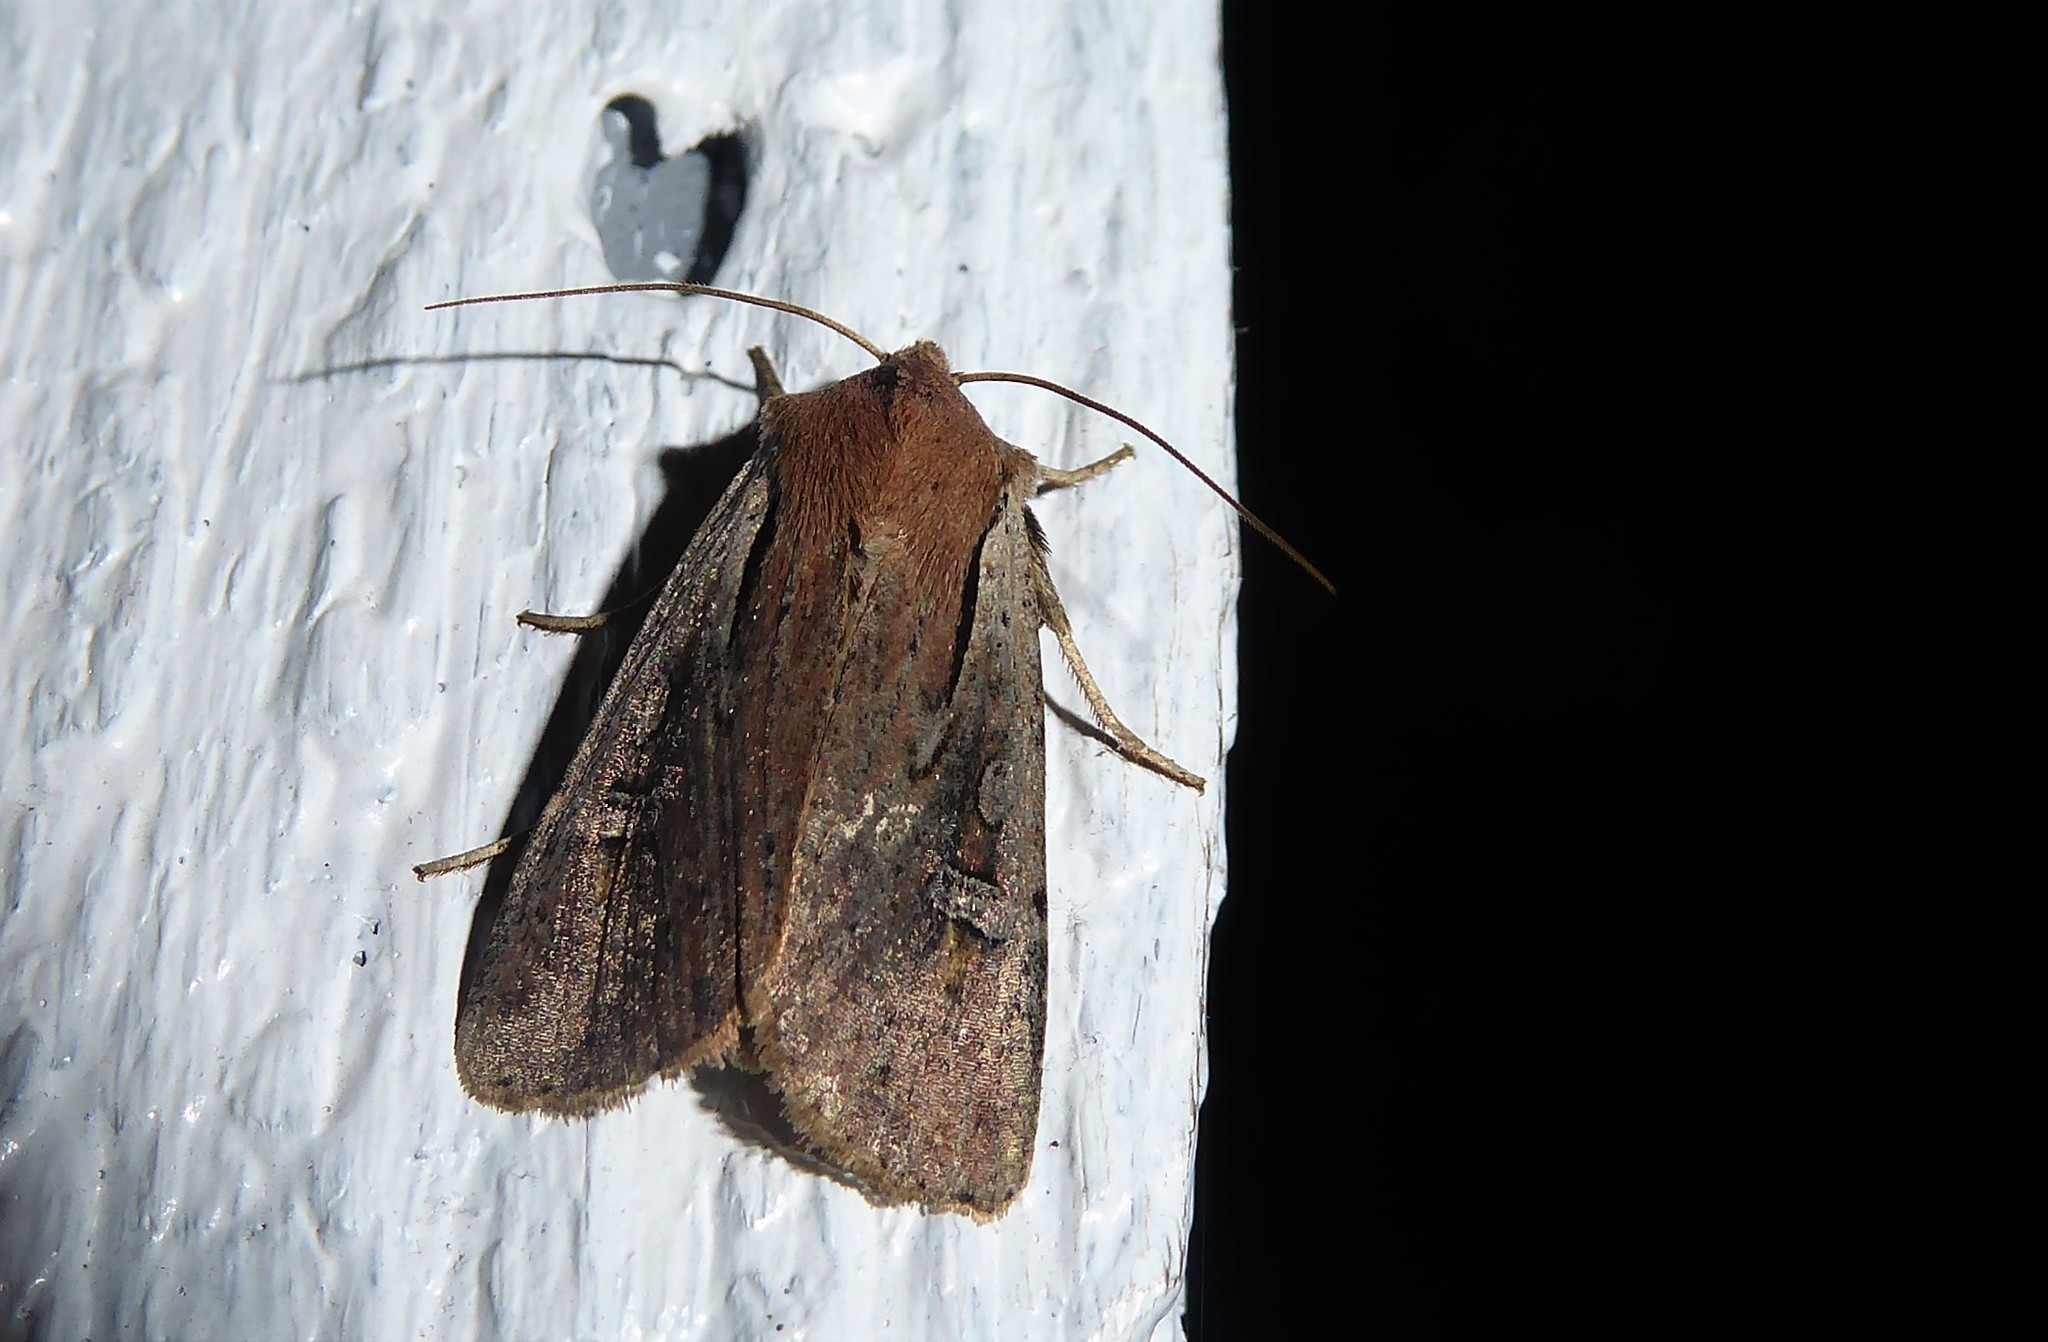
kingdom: Animalia
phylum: Arthropoda
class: Insecta
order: Lepidoptera
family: Noctuidae
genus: Ichneutica
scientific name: Ichneutica atristriga
